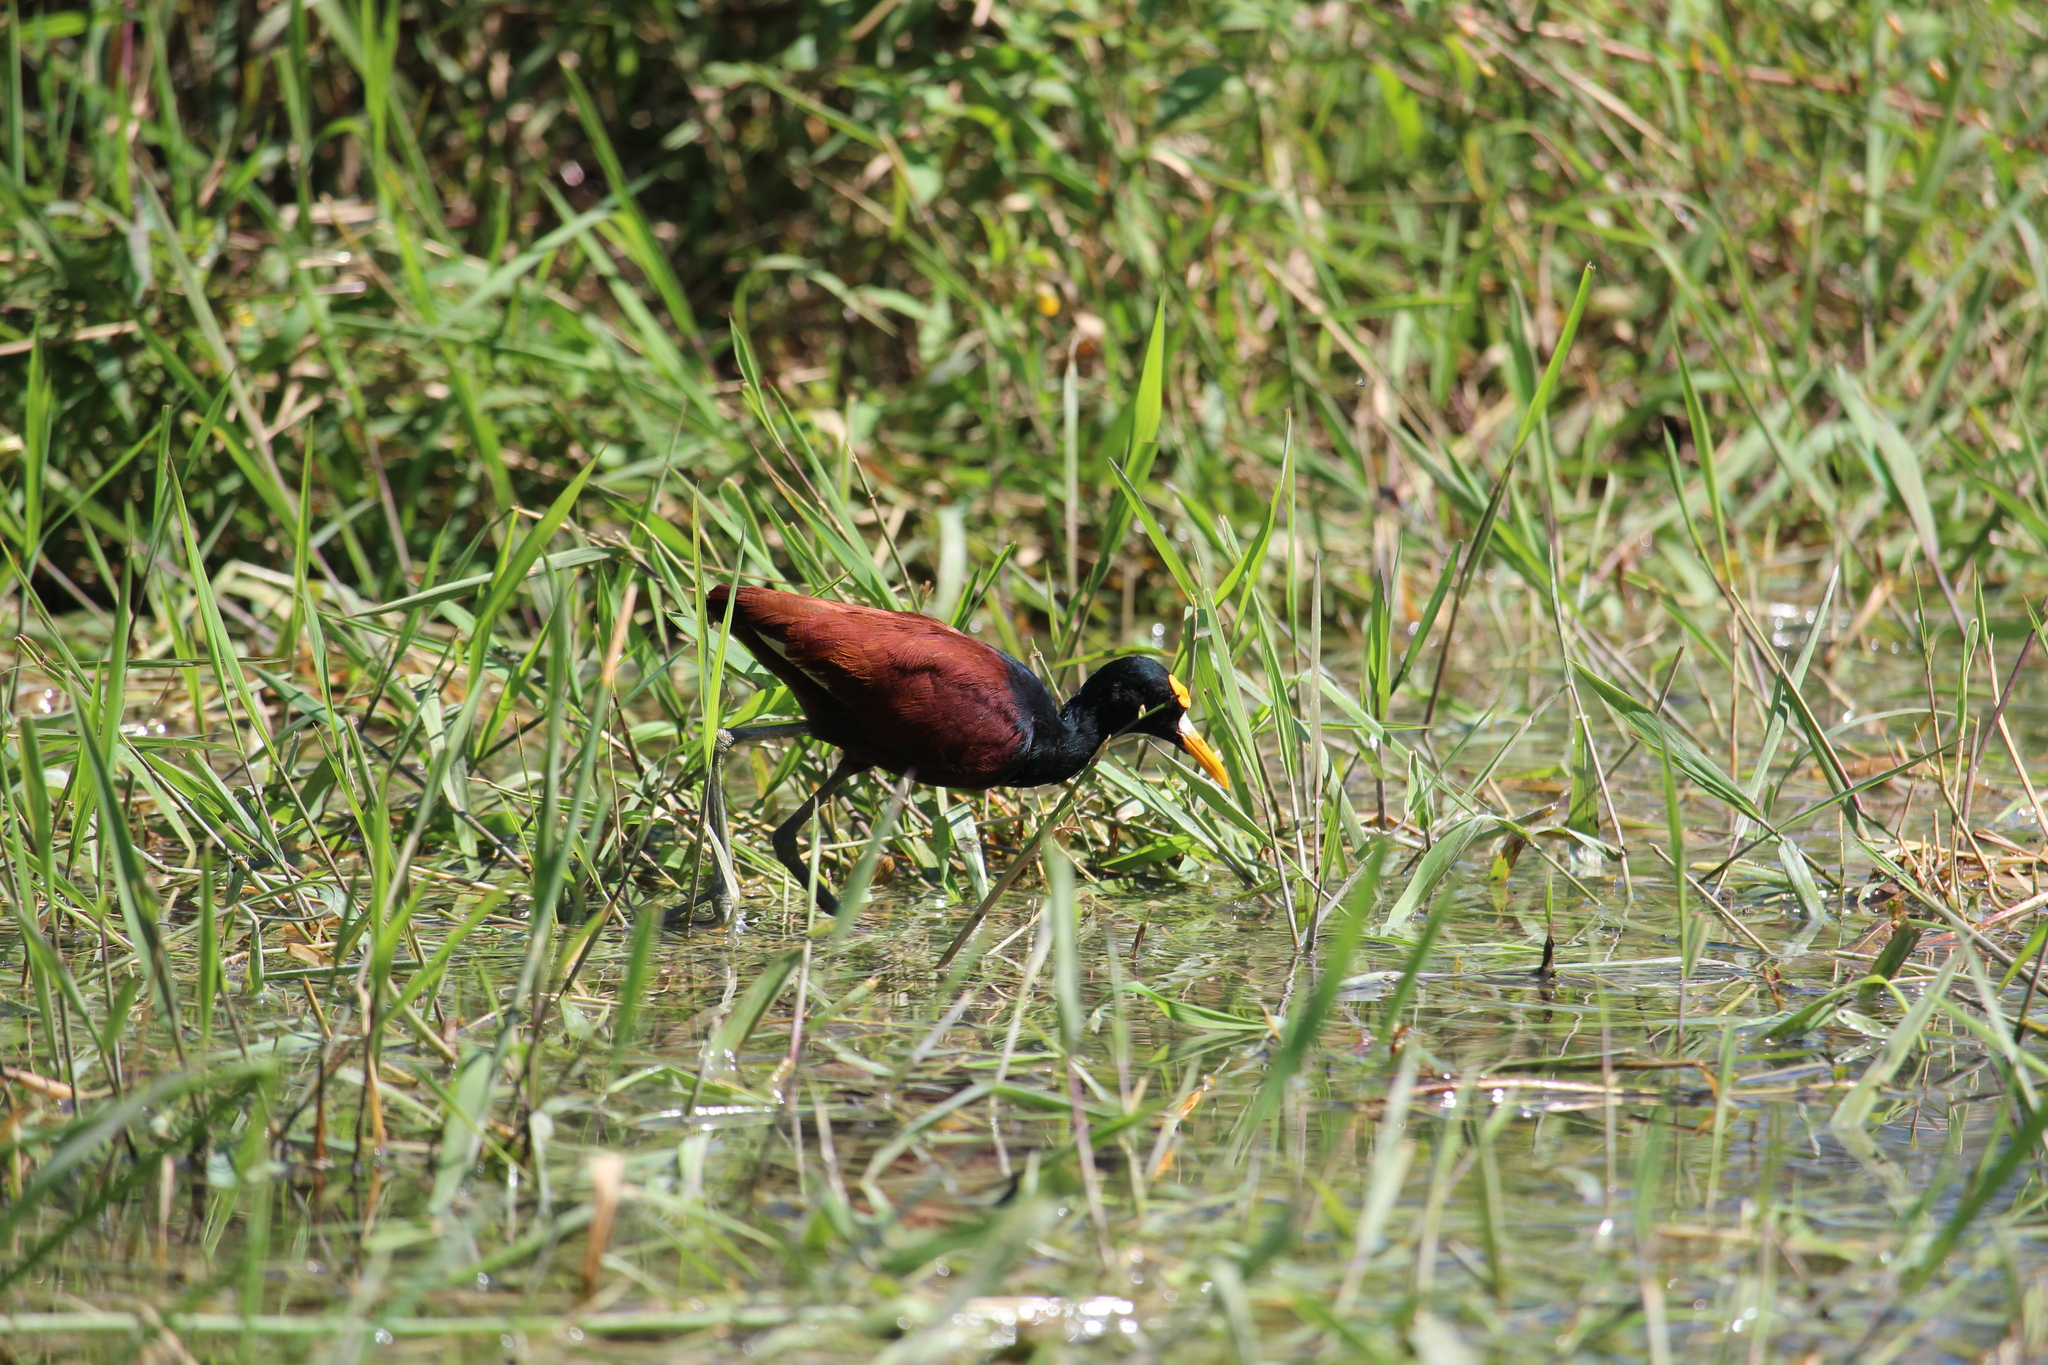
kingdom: Animalia
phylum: Chordata
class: Aves
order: Charadriiformes
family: Jacanidae
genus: Jacana
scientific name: Jacana spinosa
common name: Northern jacana
